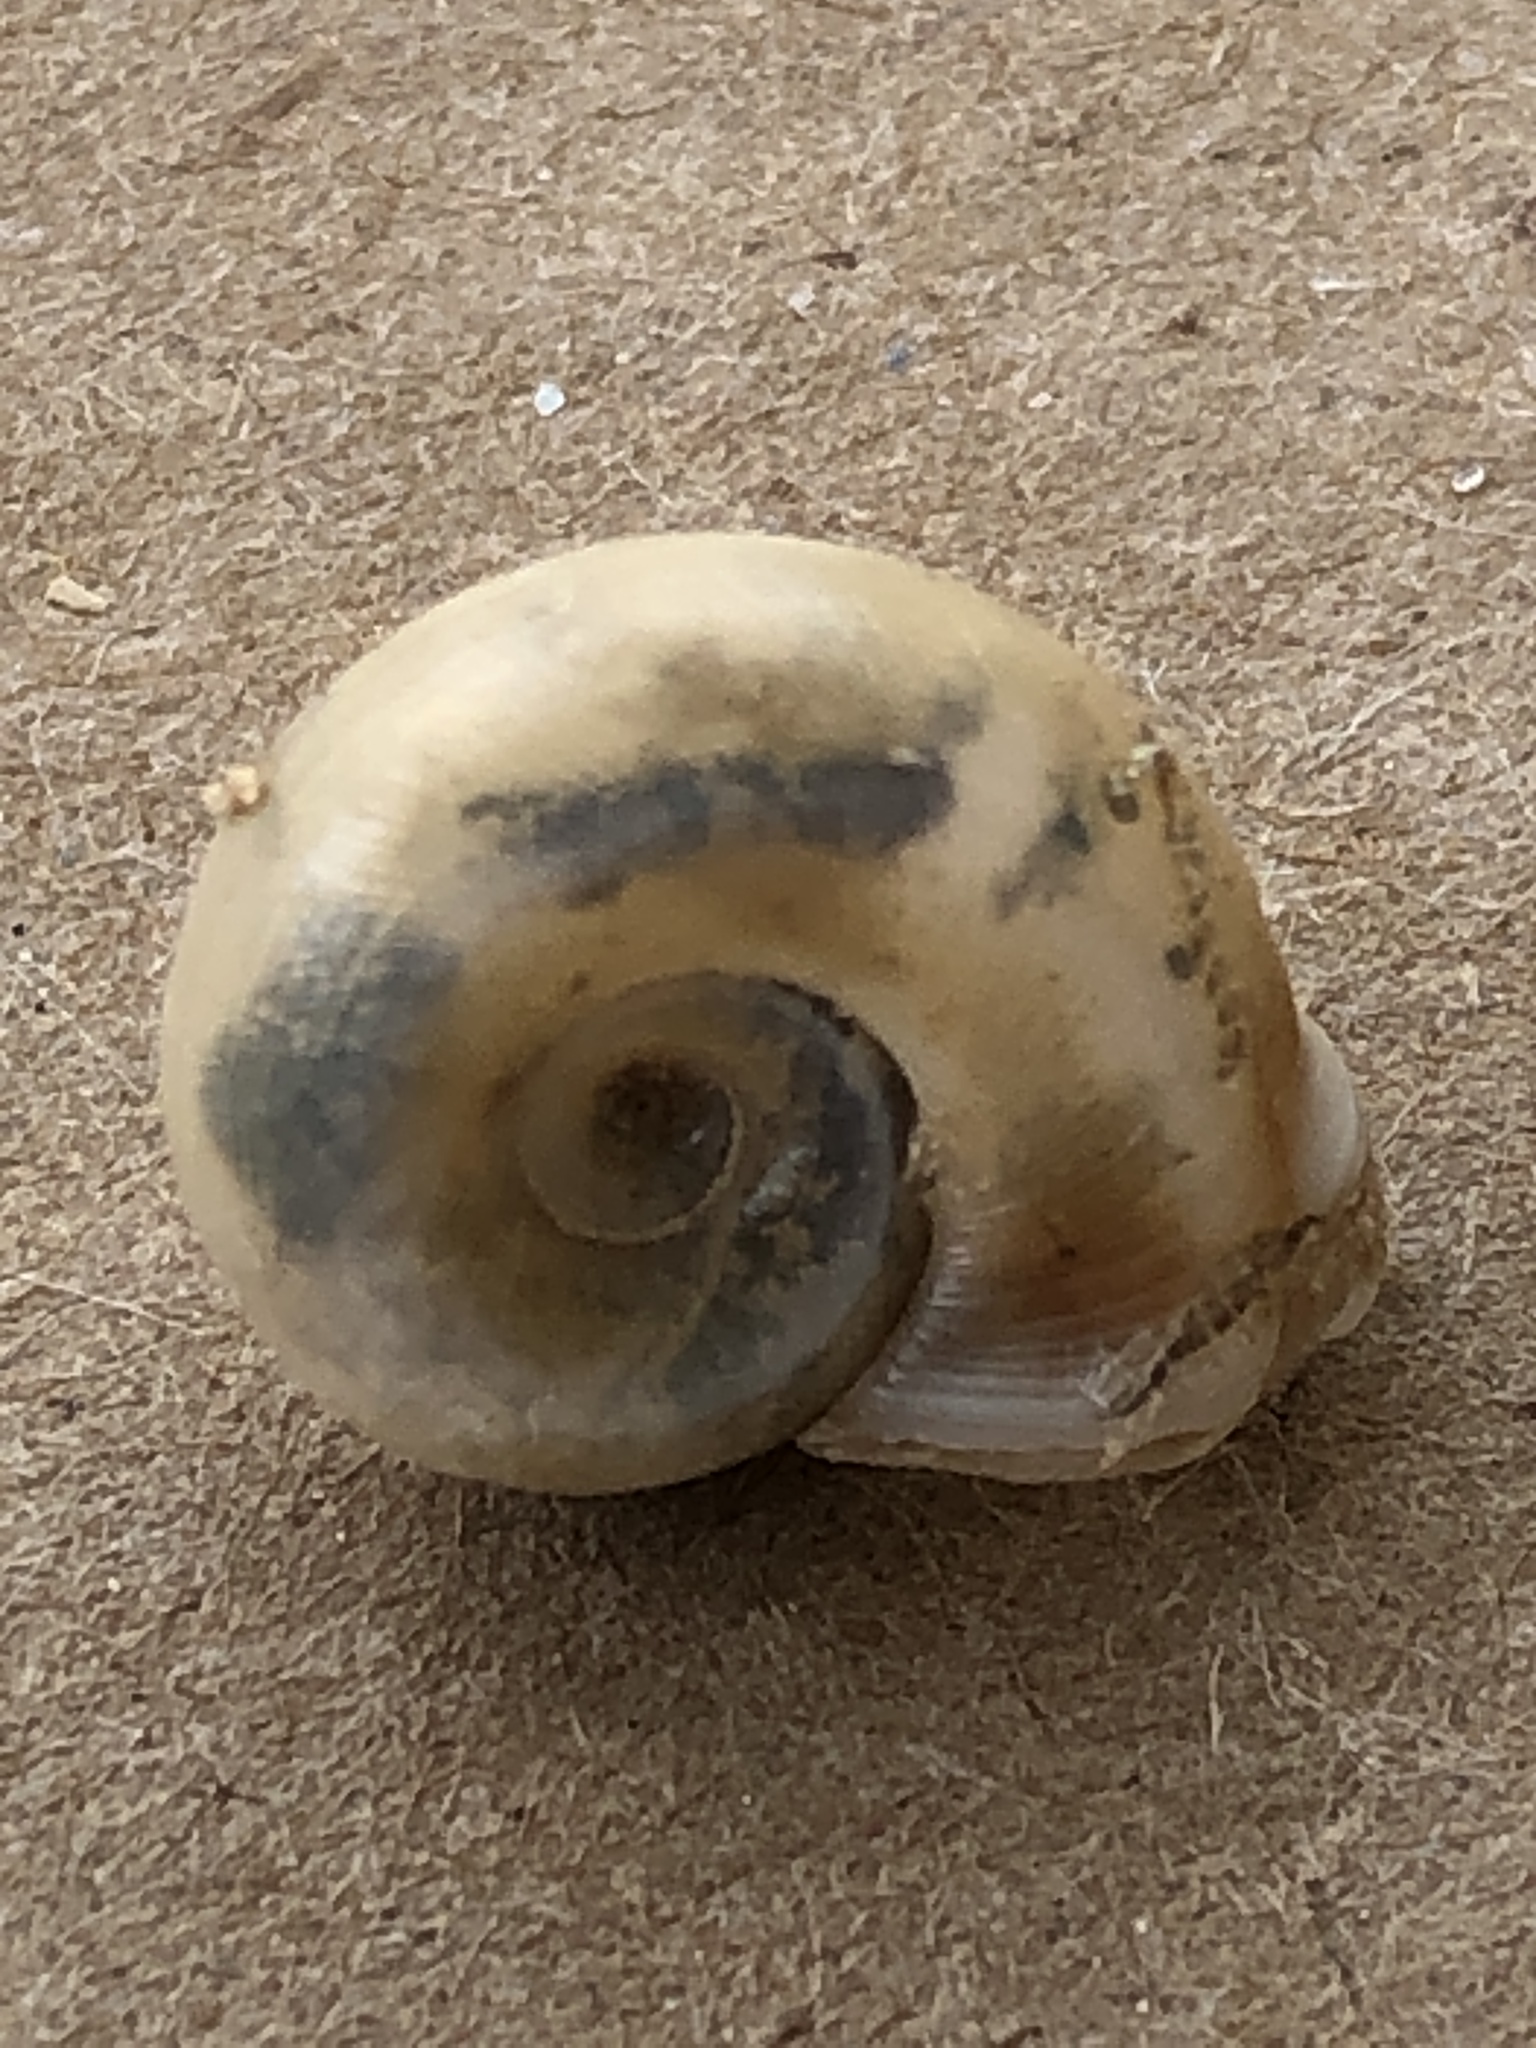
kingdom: Animalia
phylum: Mollusca
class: Gastropoda
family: Planorbidae
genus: Planorbella
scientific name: Planorbella trivolvis
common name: Marsh rams-horn
